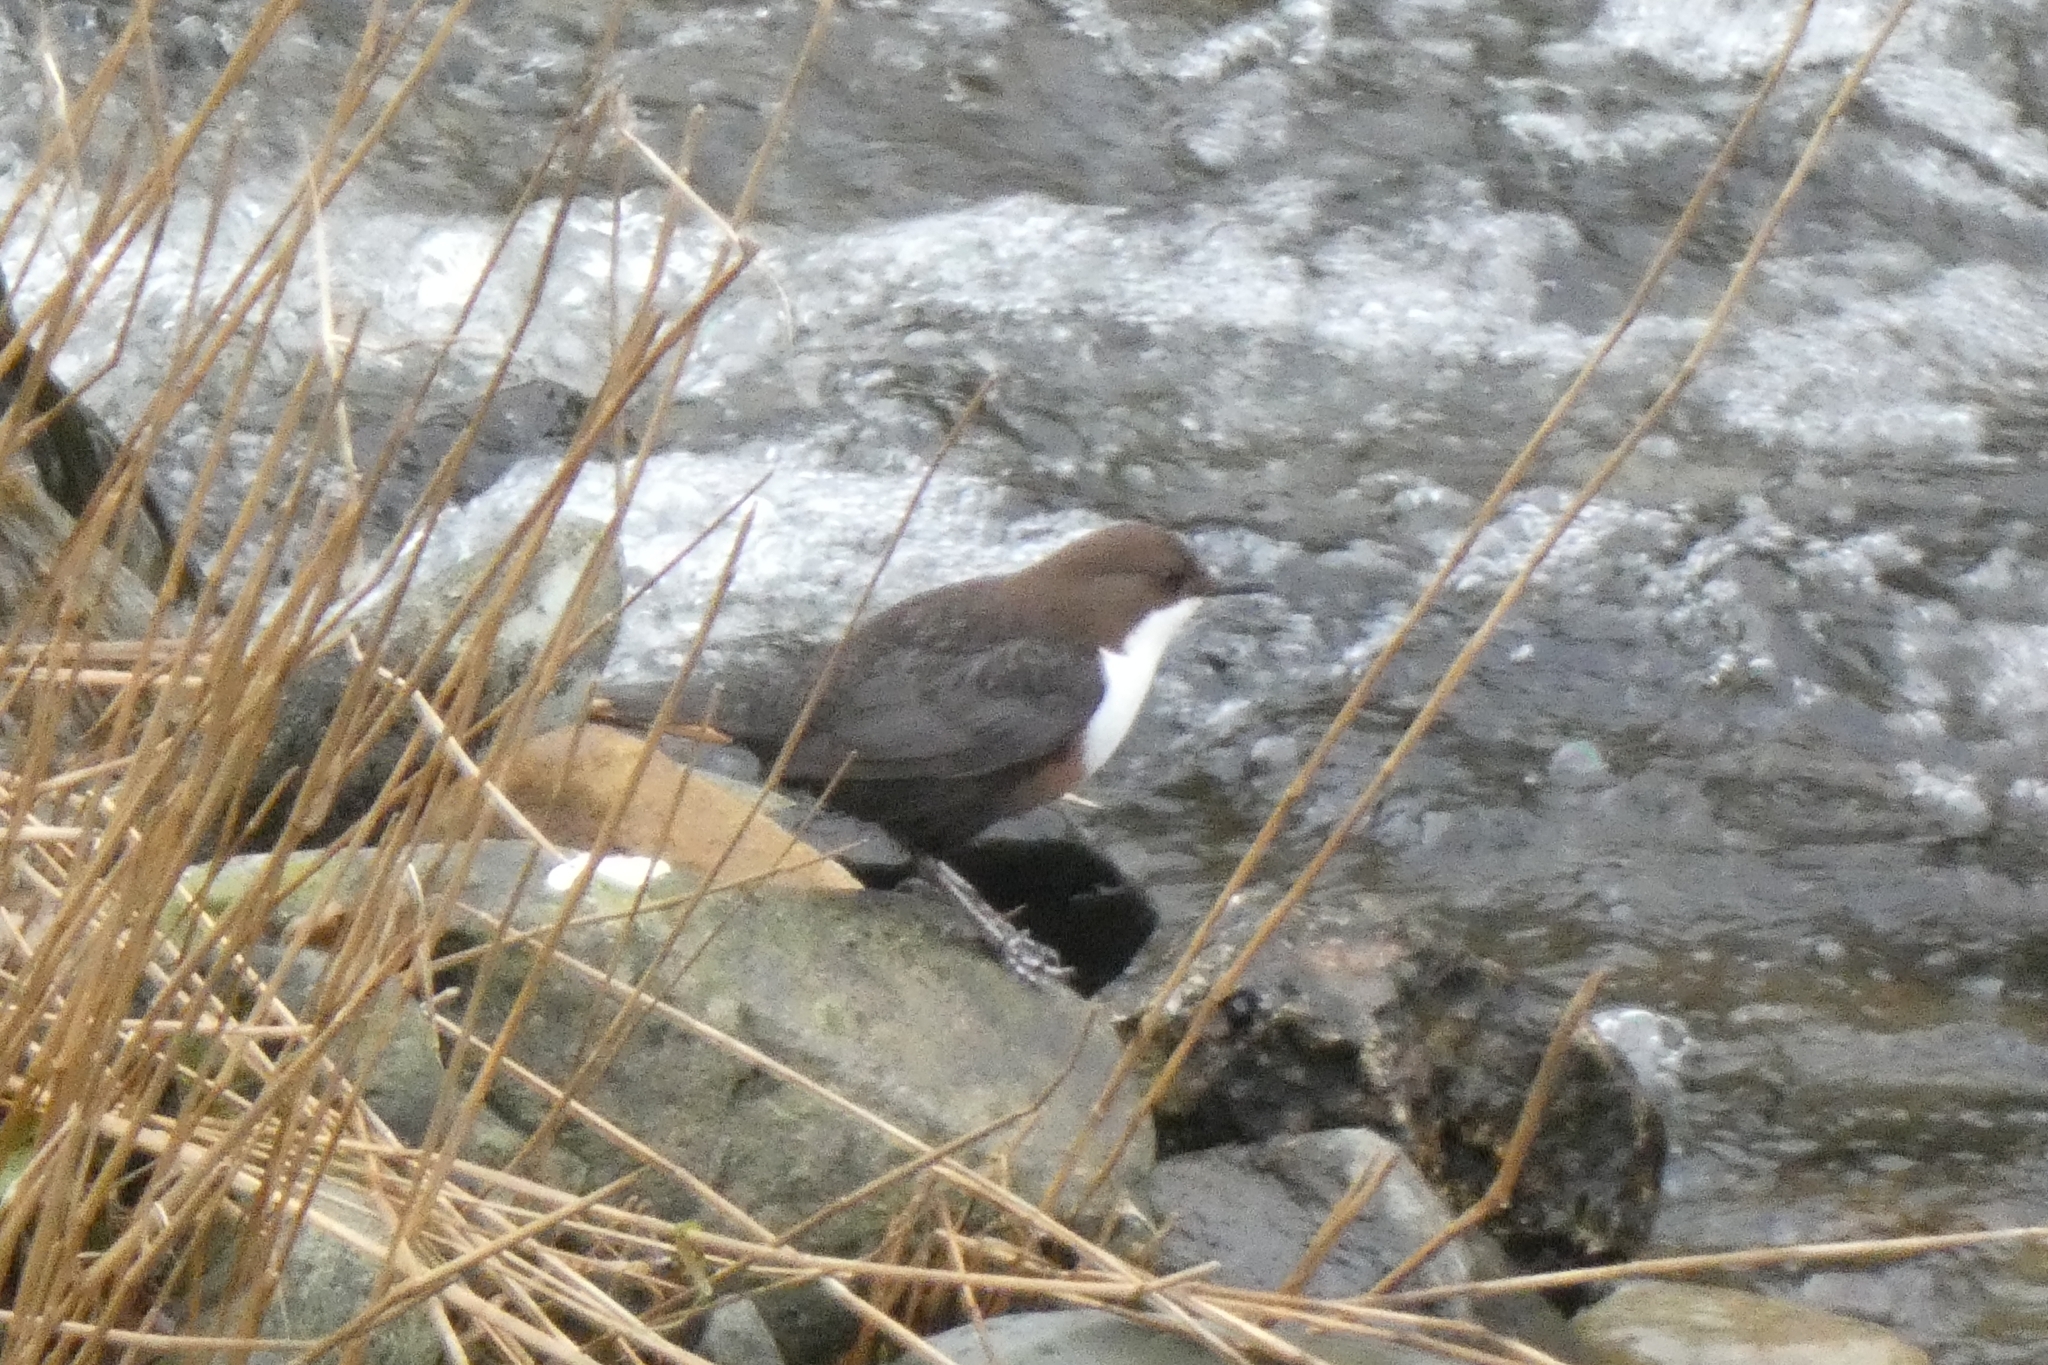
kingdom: Animalia
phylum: Chordata
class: Aves
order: Passeriformes
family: Cinclidae
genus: Cinclus
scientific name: Cinclus cinclus
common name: White-throated dipper
